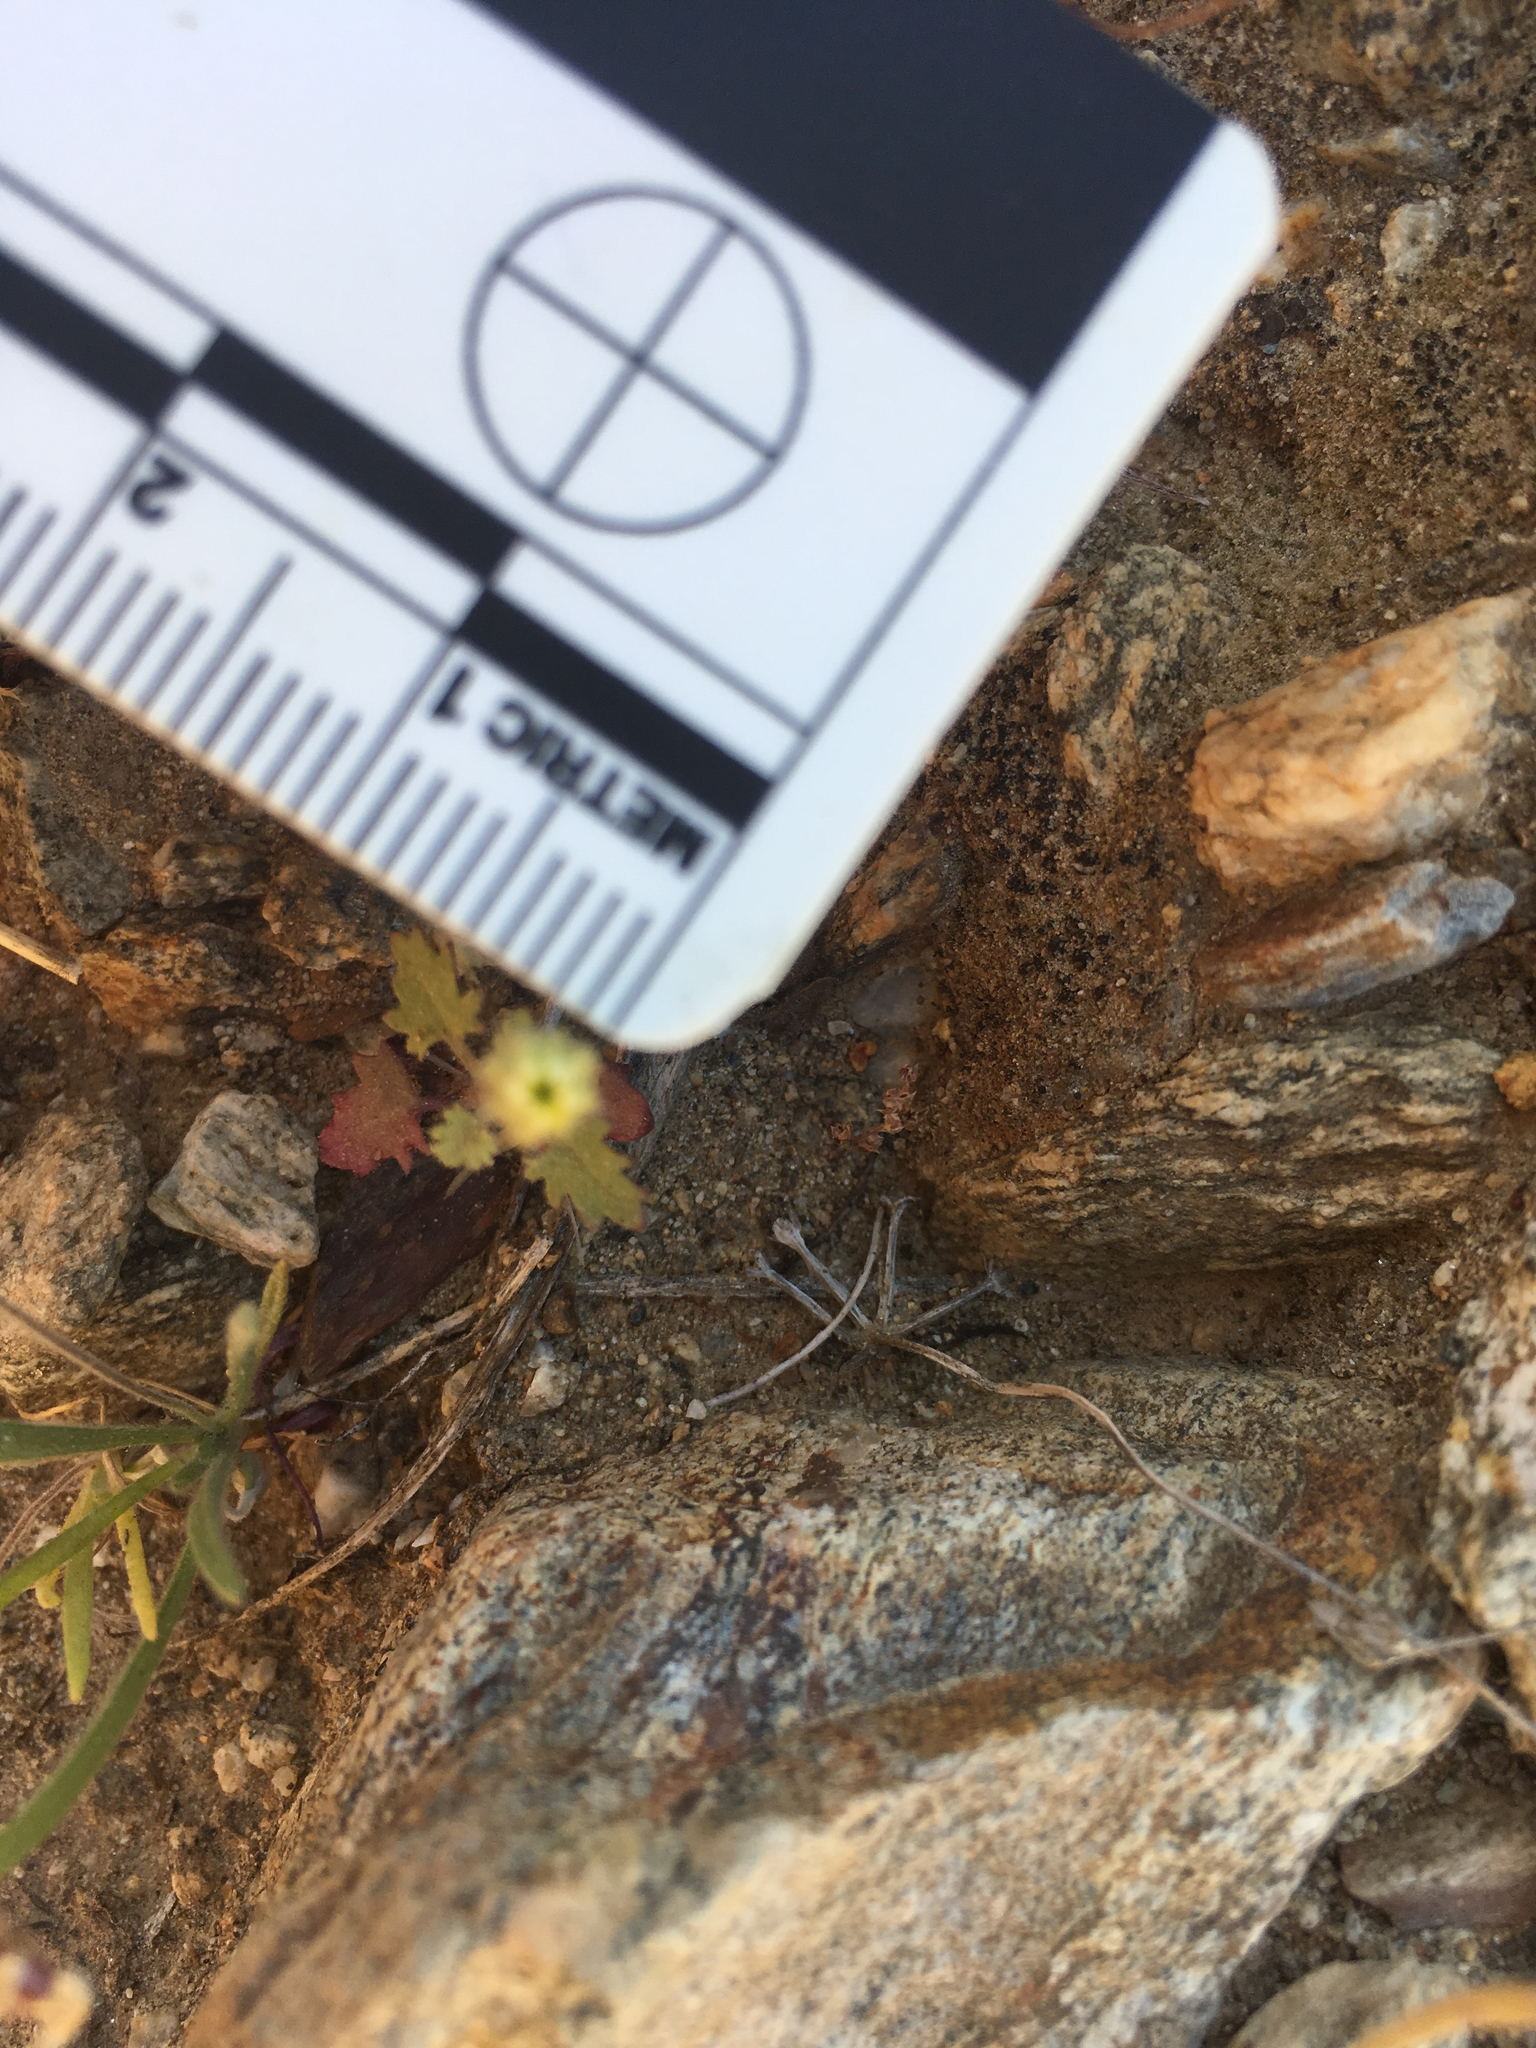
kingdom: Plantae
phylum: Tracheophyta
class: Magnoliopsida
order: Asterales
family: Asteraceae
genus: Laphamia
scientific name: Laphamia emoryi
